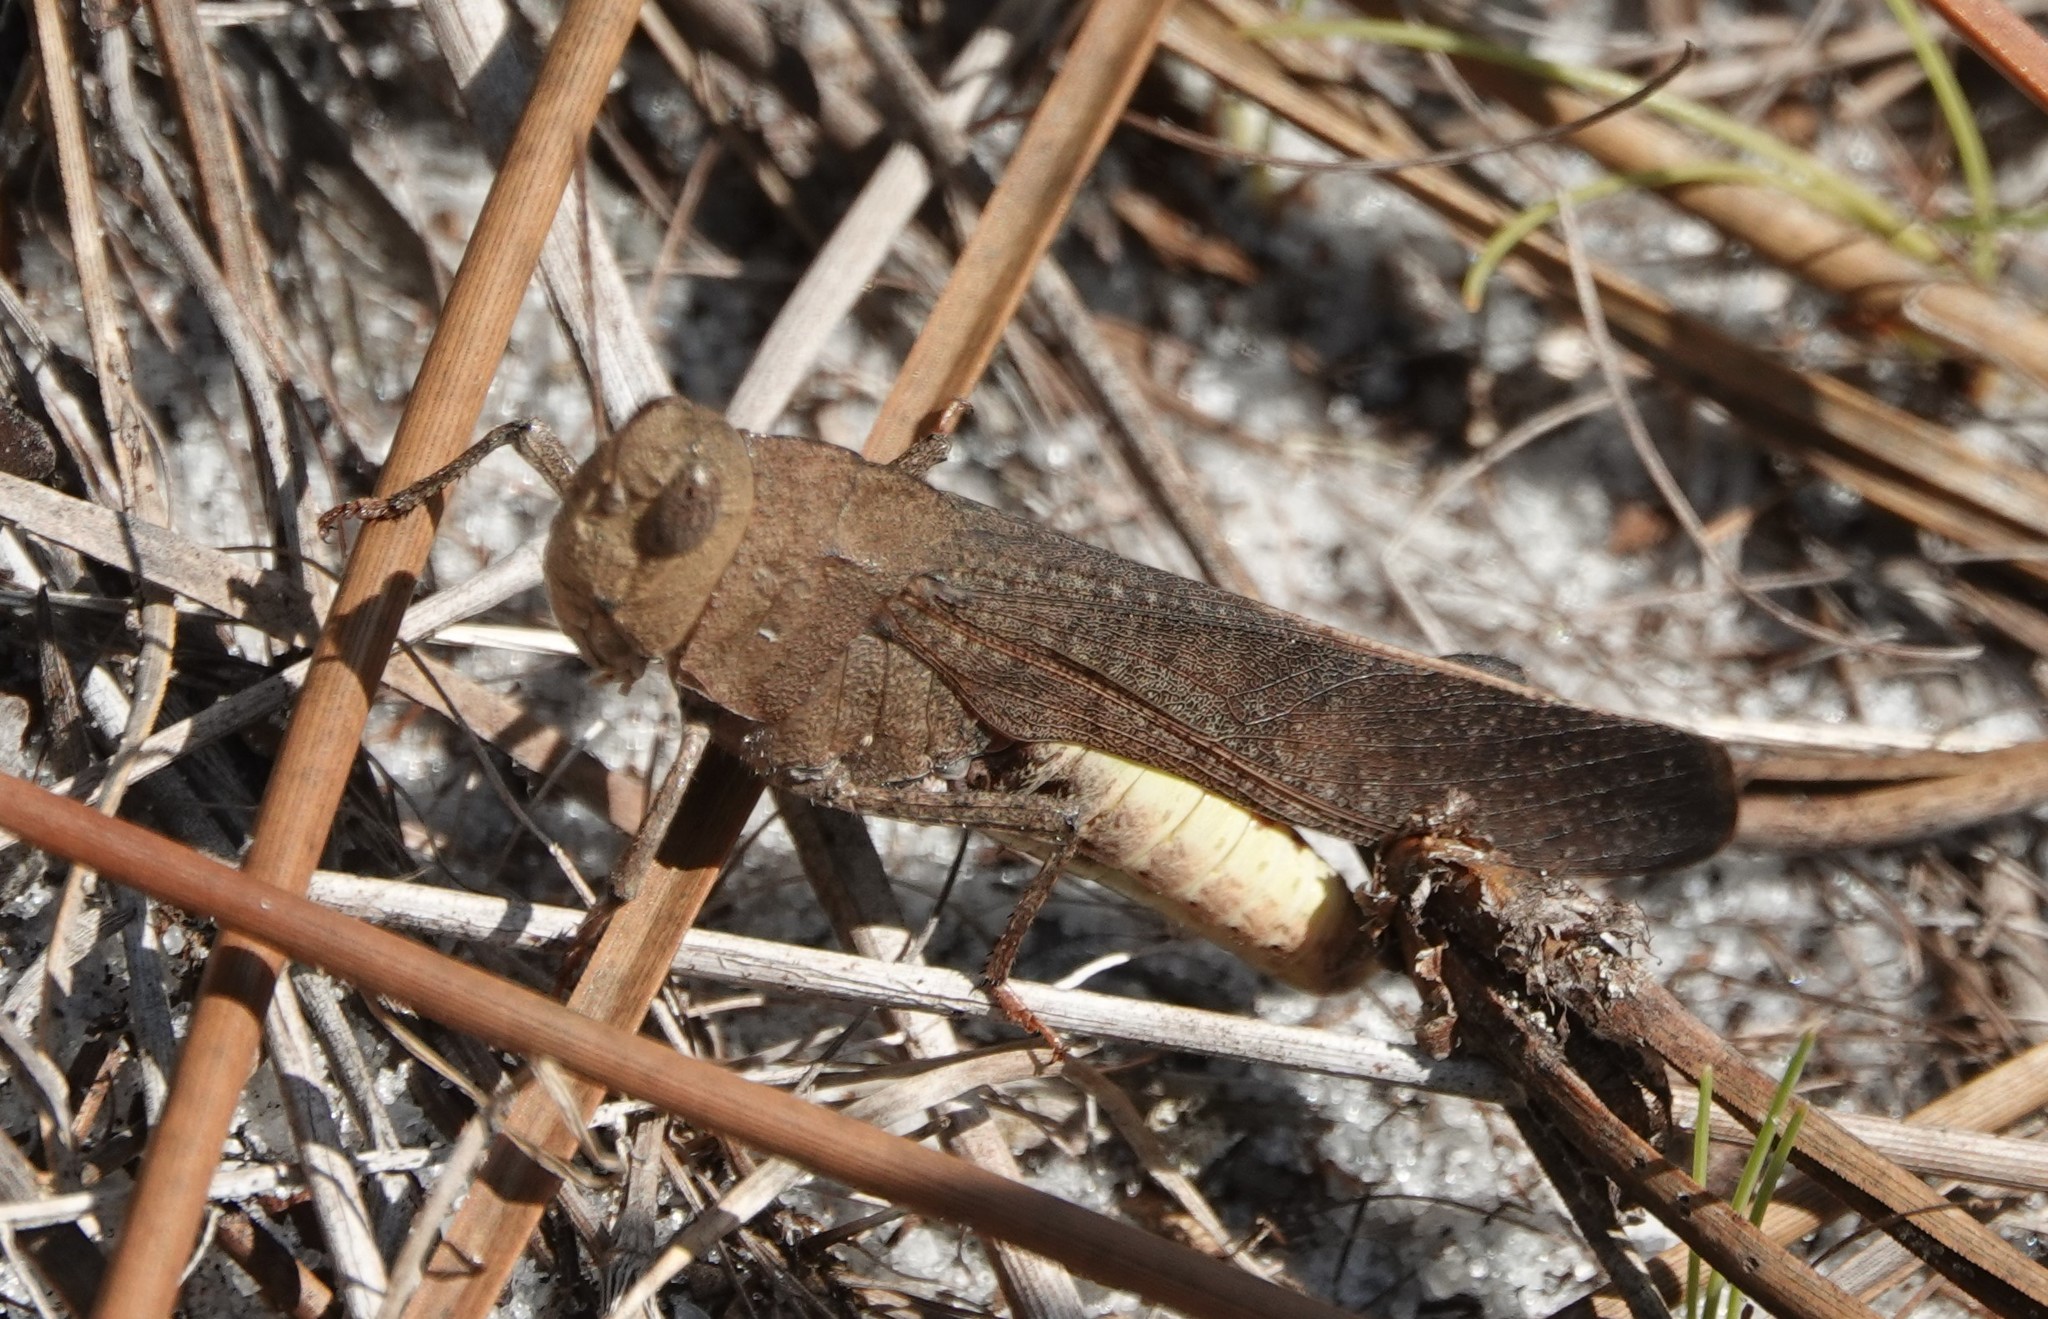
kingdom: Animalia
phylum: Arthropoda
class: Insecta
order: Orthoptera
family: Acrididae
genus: Arphia
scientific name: Arphia granulata
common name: Southern yellow-winged grasshopper
